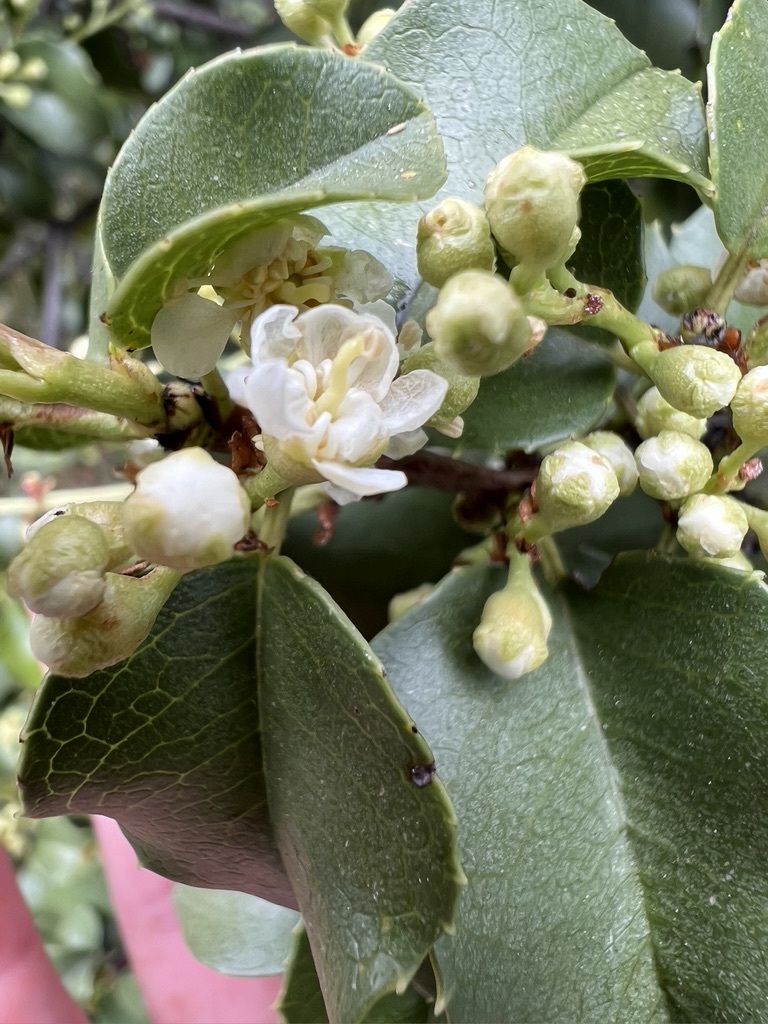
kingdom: Plantae
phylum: Tracheophyta
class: Magnoliopsida
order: Rosales
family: Rosaceae
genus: Prunus
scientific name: Prunus ilicifolia
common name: Hollyleaf cherry
